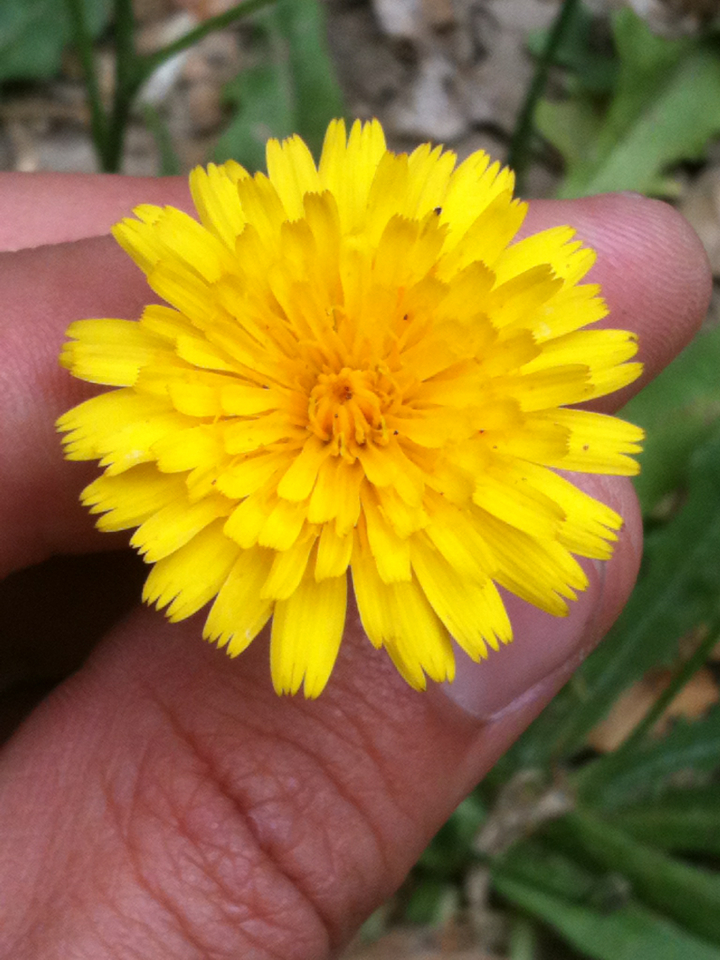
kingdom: Plantae
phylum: Tracheophyta
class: Magnoliopsida
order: Asterales
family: Asteraceae
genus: Hypochaeris
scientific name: Hypochaeris radicata
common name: Flatweed
